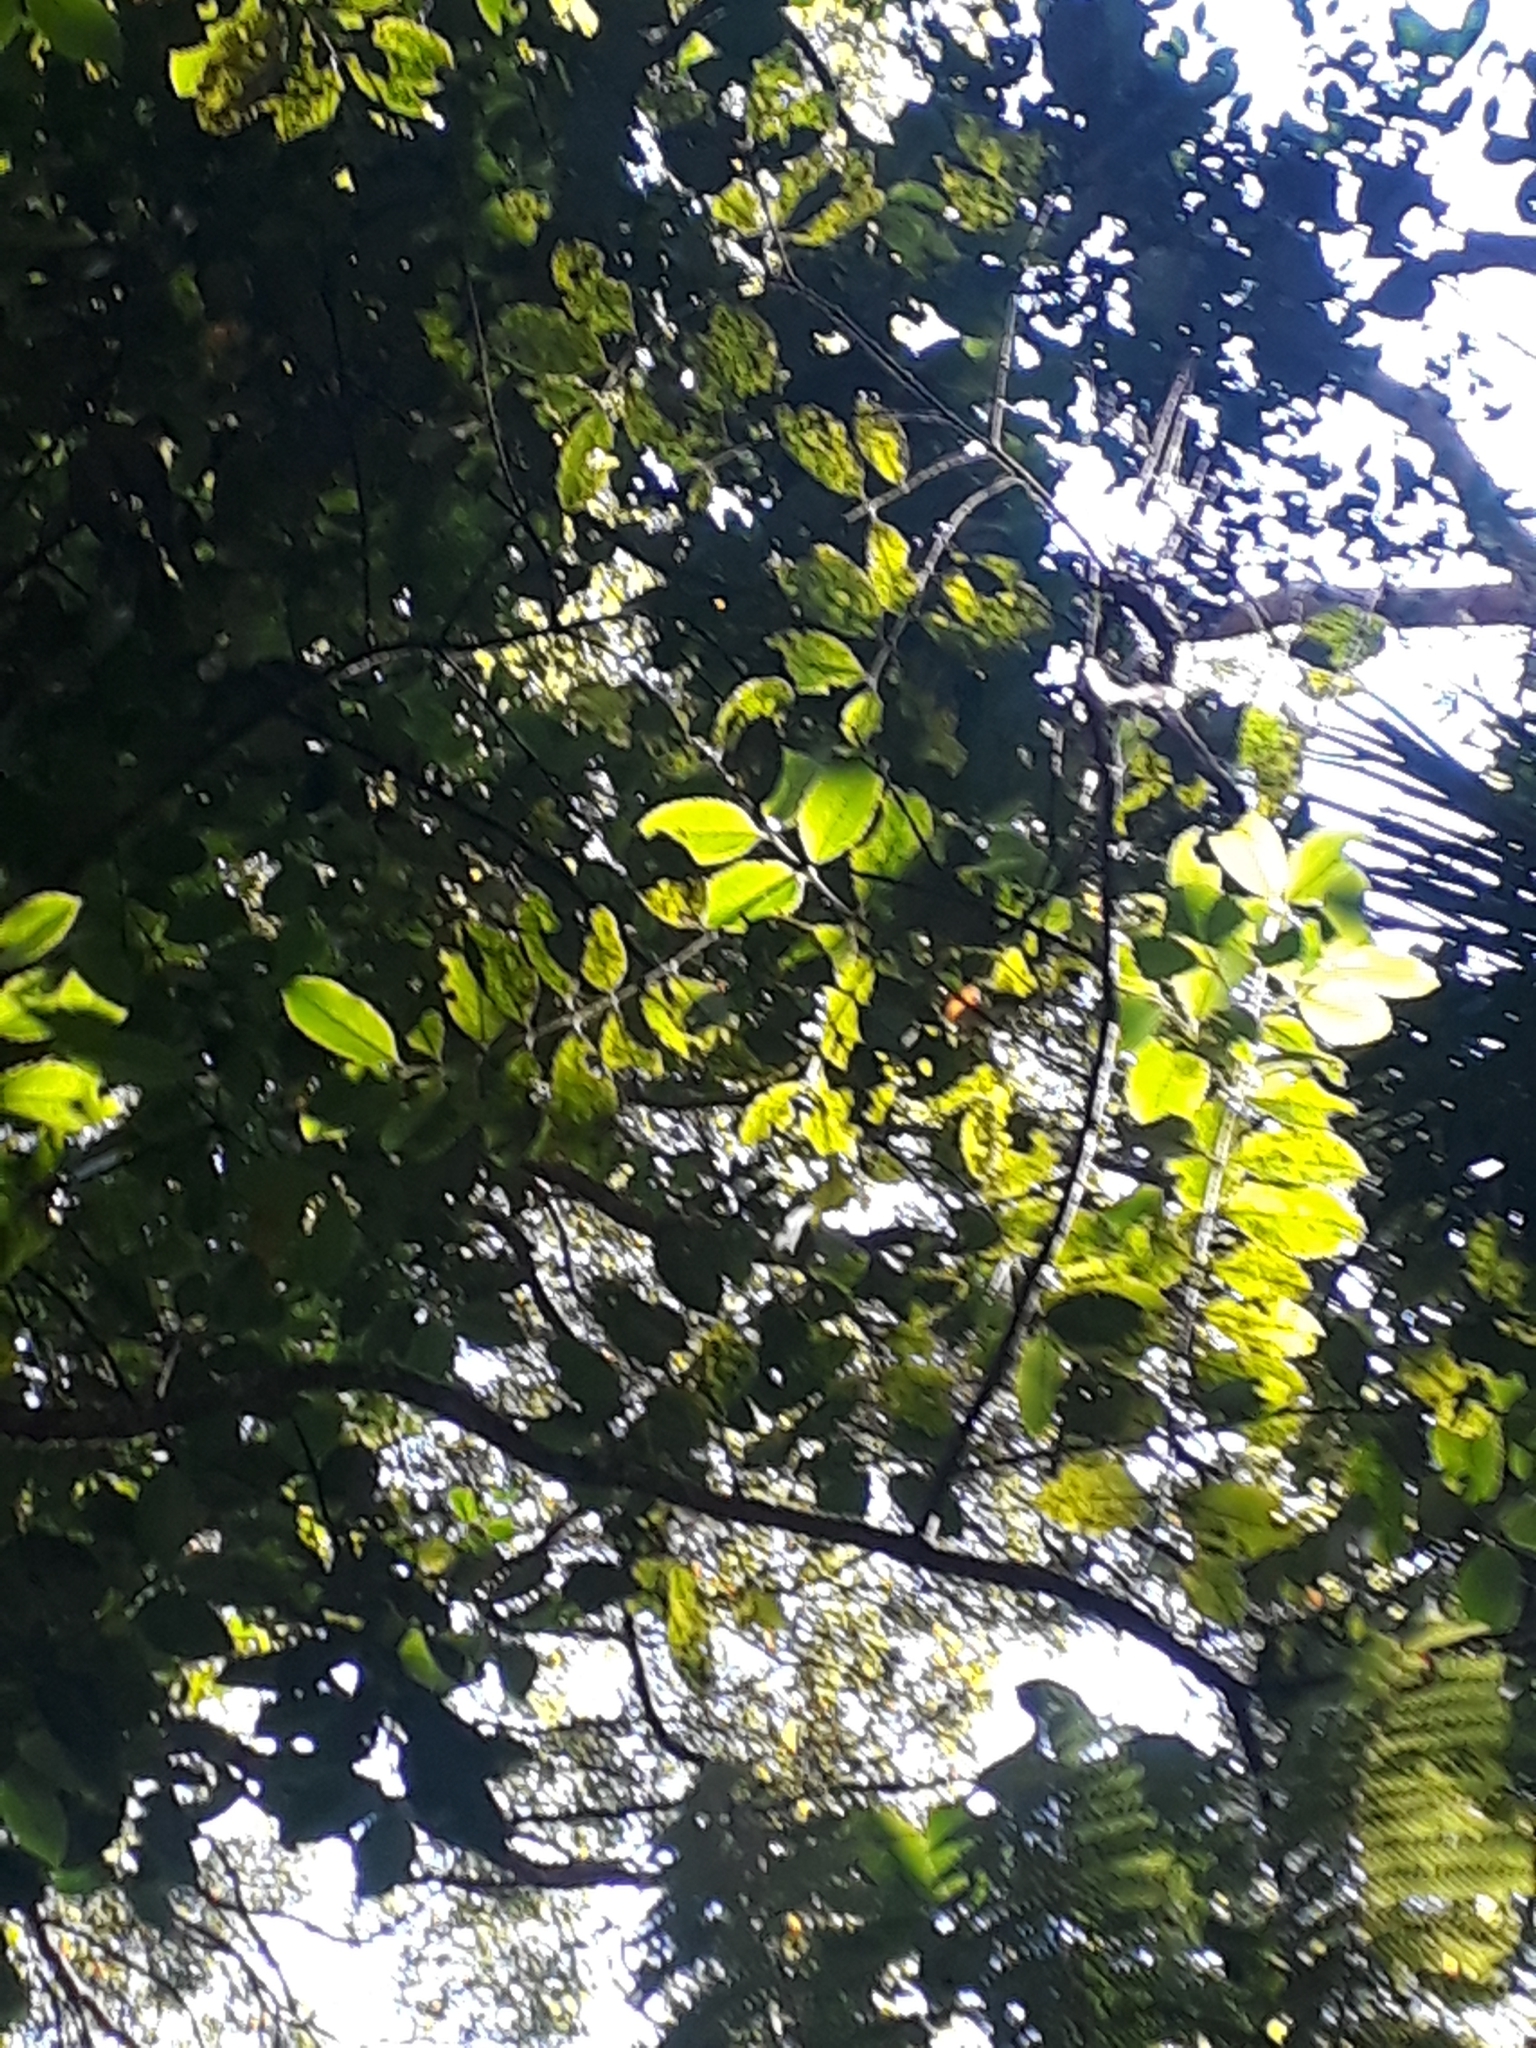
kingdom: Plantae
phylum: Tracheophyta
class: Magnoliopsida
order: Laurales
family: Atherospermataceae
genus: Laurelia
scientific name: Laurelia novae-zelandiae
